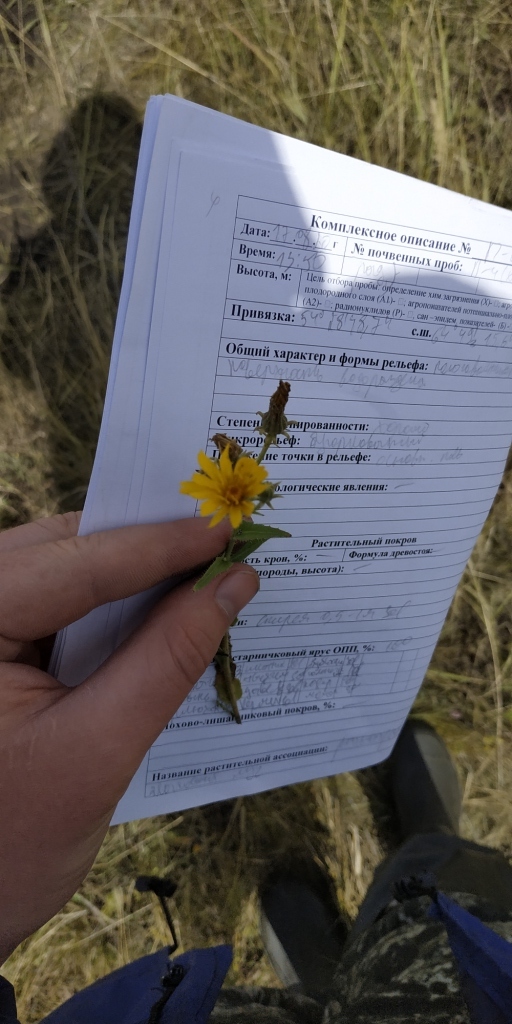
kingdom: Plantae
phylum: Tracheophyta
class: Magnoliopsida
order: Asterales
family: Asteraceae
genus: Picris
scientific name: Picris hieracioides
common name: Hawkweed oxtongue
